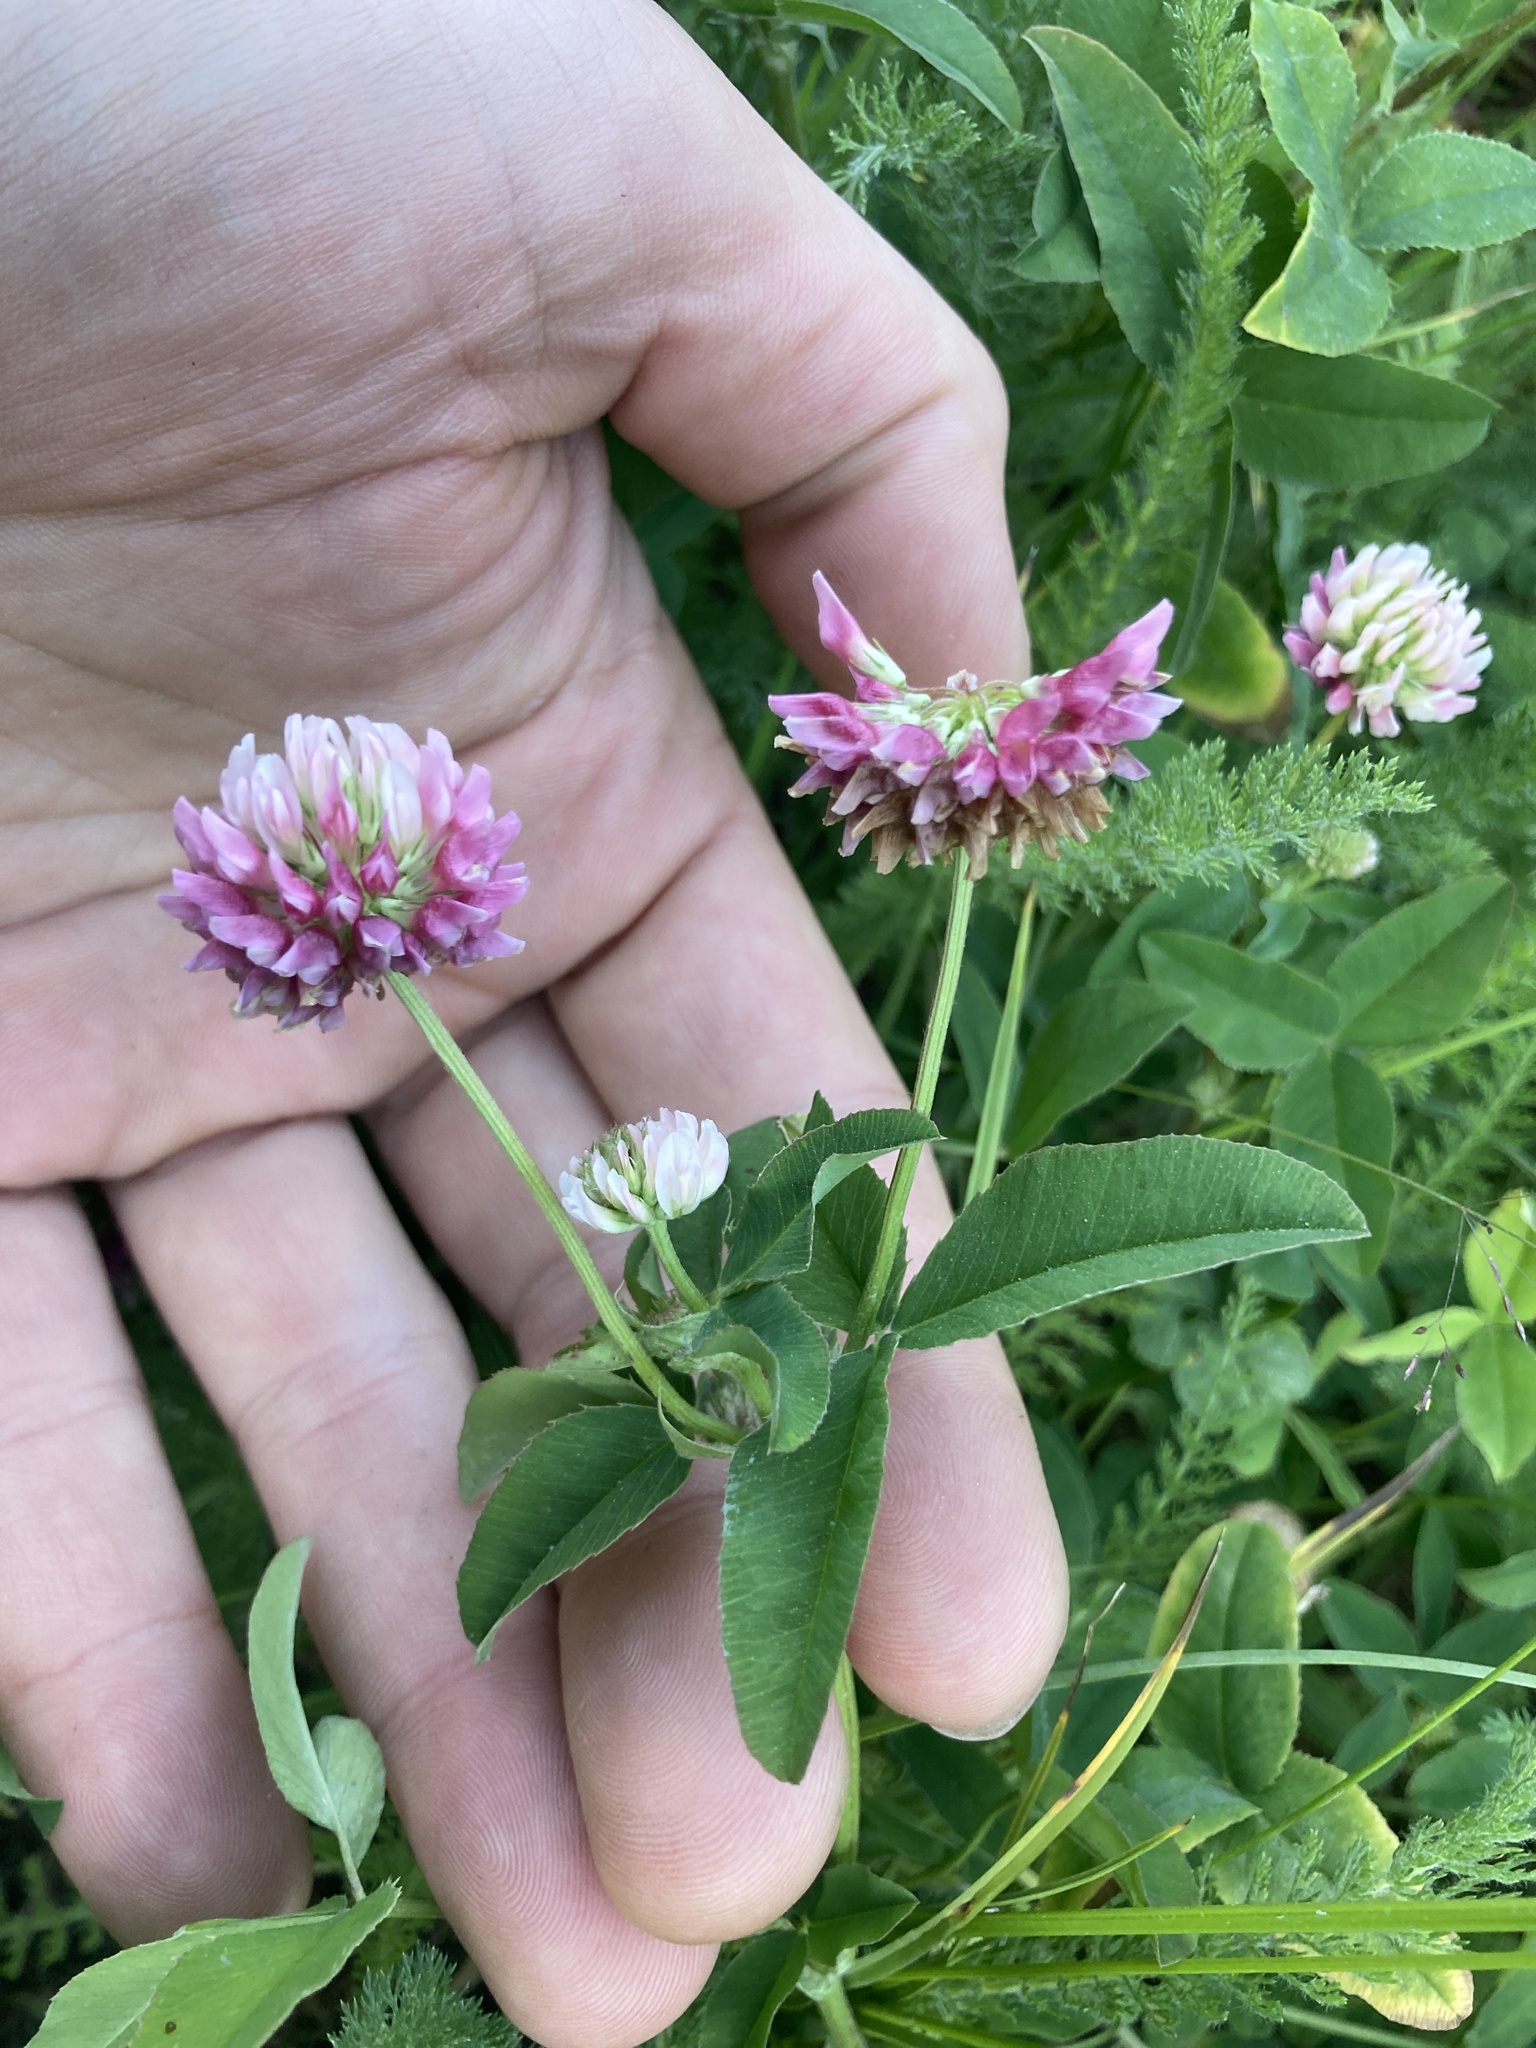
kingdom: Plantae
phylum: Tracheophyta
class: Magnoliopsida
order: Fabales
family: Fabaceae
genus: Trifolium
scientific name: Trifolium hybridum
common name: Alsike clover
